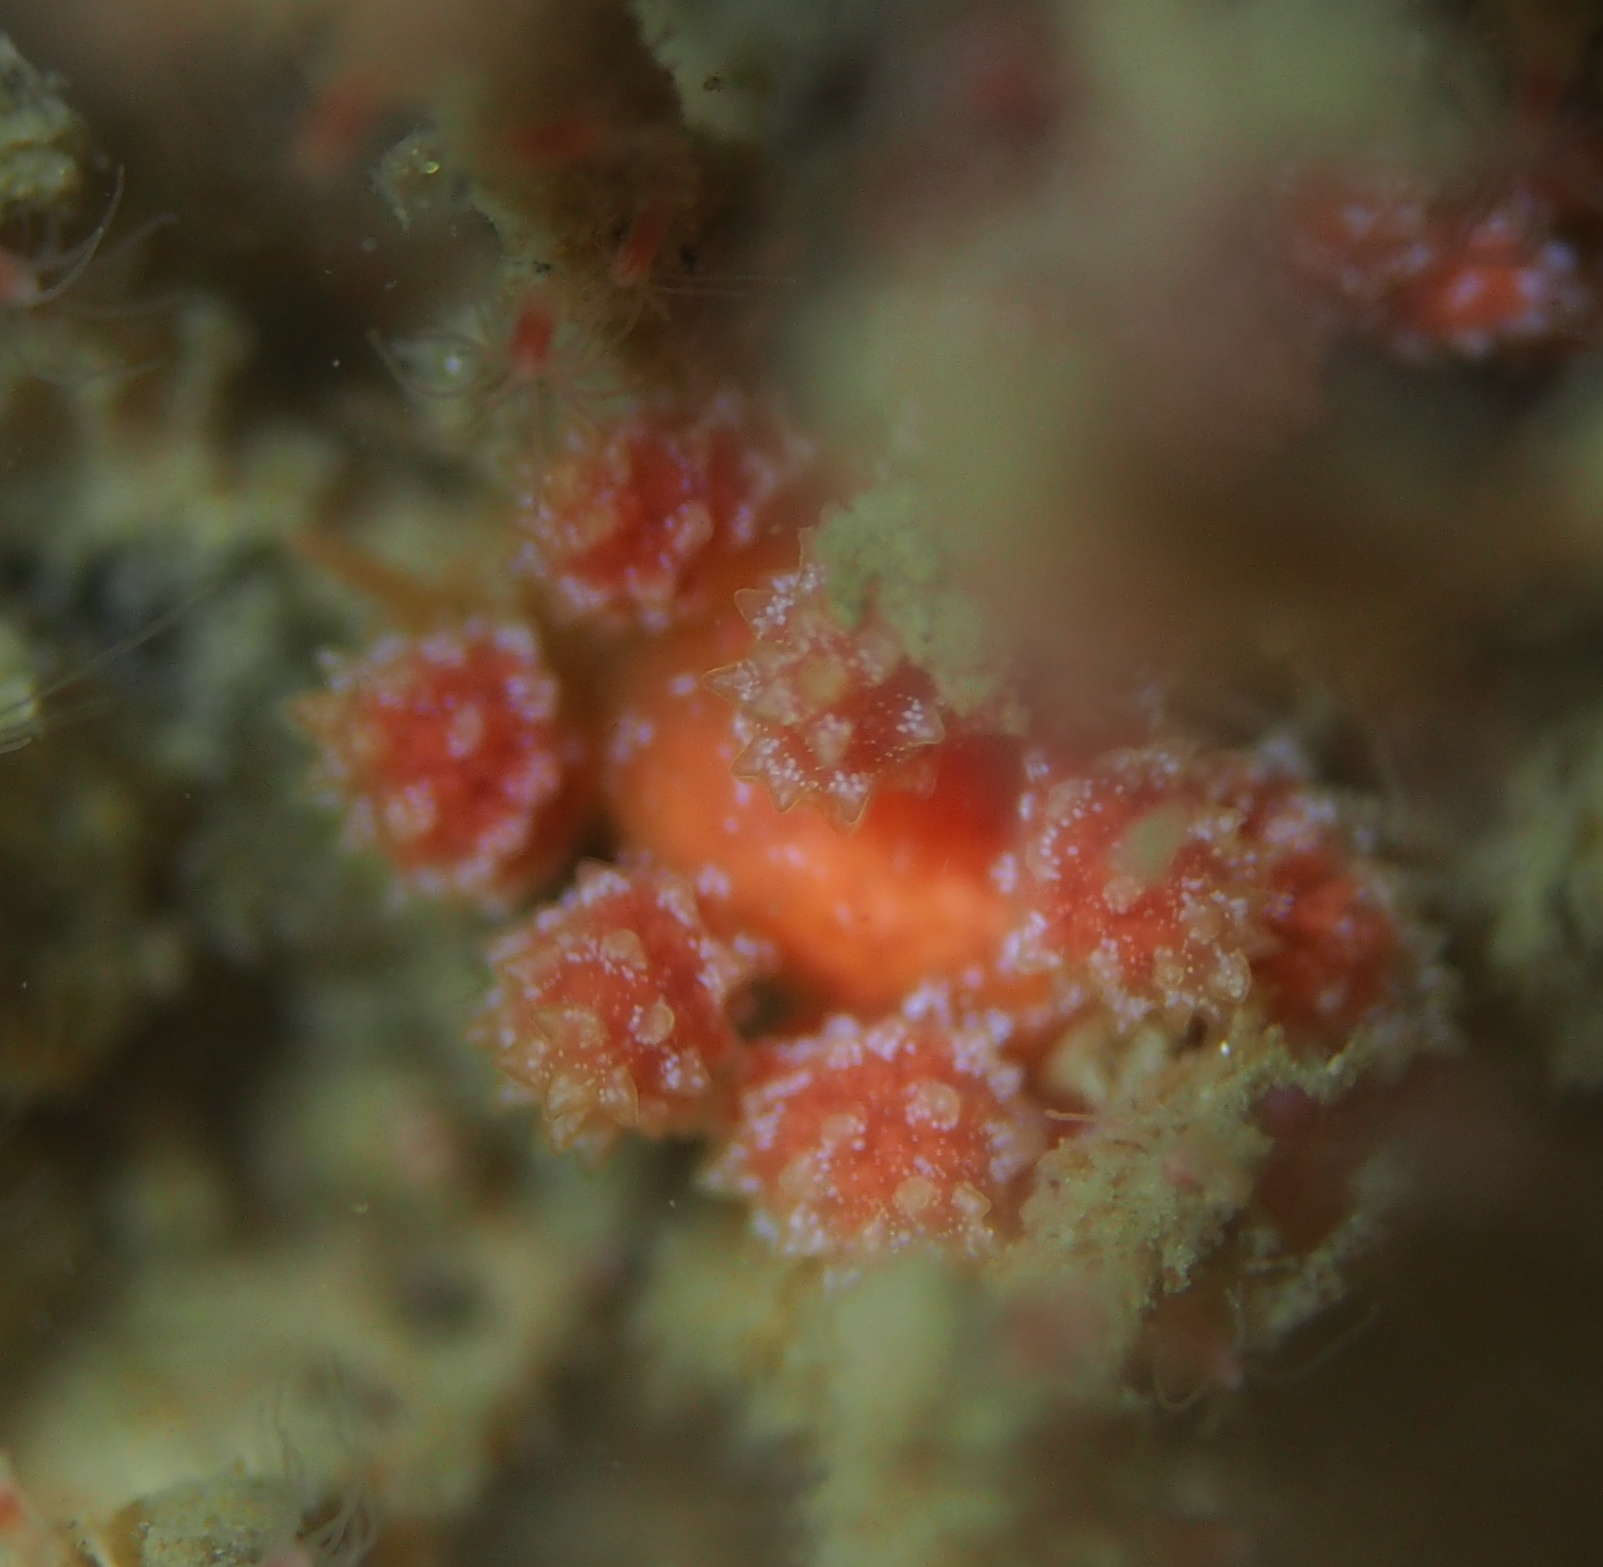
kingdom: Animalia
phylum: Mollusca
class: Gastropoda
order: Nudibranchia
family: Dotidae
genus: Doto
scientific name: Doto fragilis
